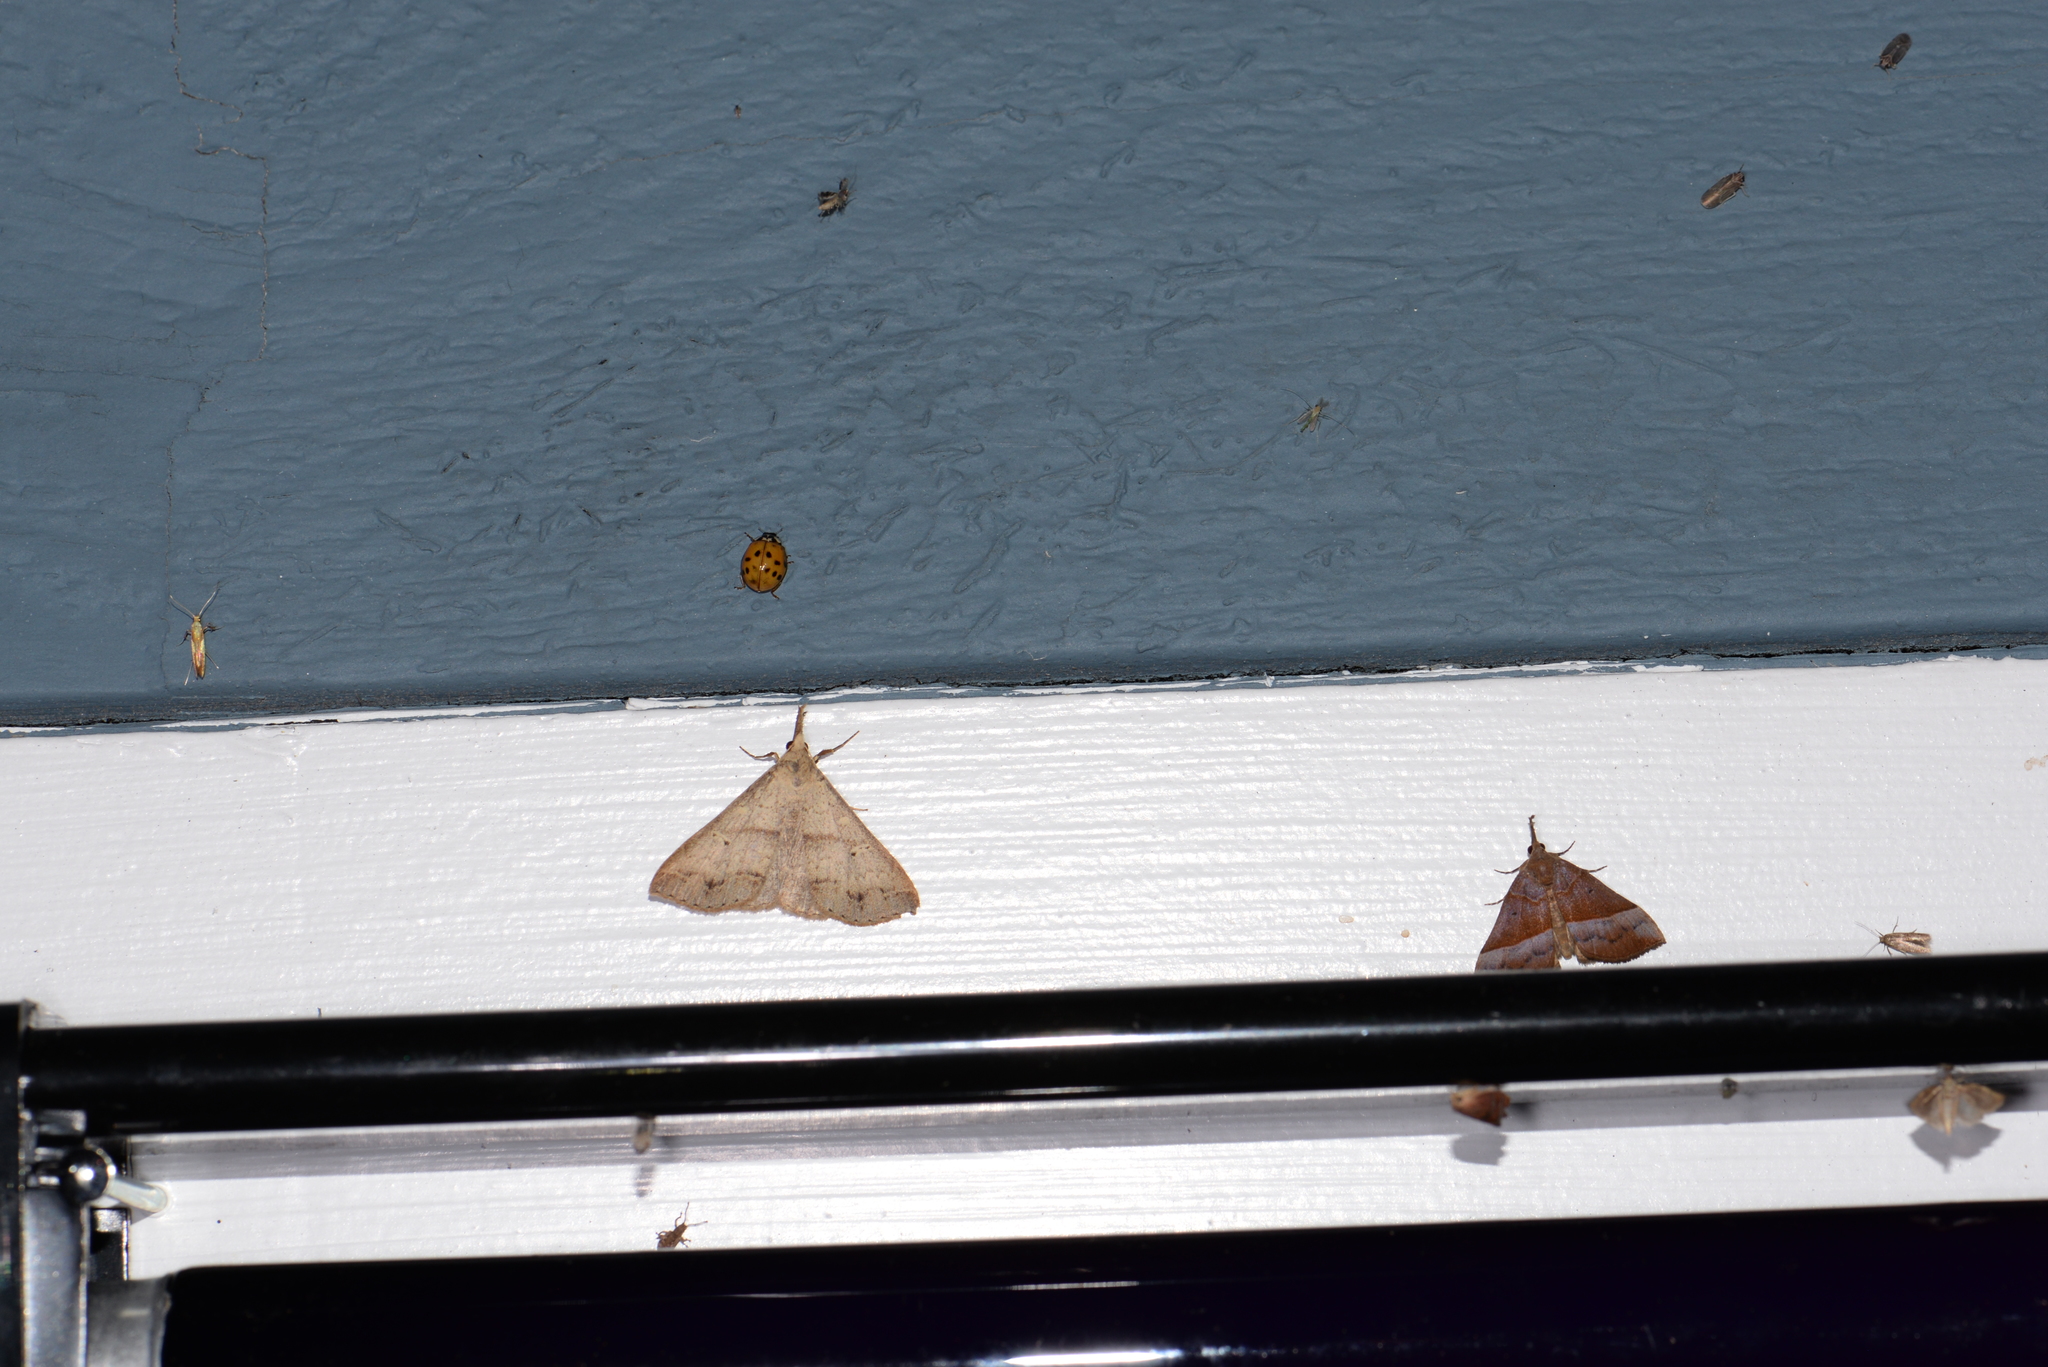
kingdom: Animalia
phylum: Arthropoda
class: Insecta
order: Lepidoptera
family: Erebidae
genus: Renia
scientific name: Renia discoloralis
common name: Discolored renia moth
